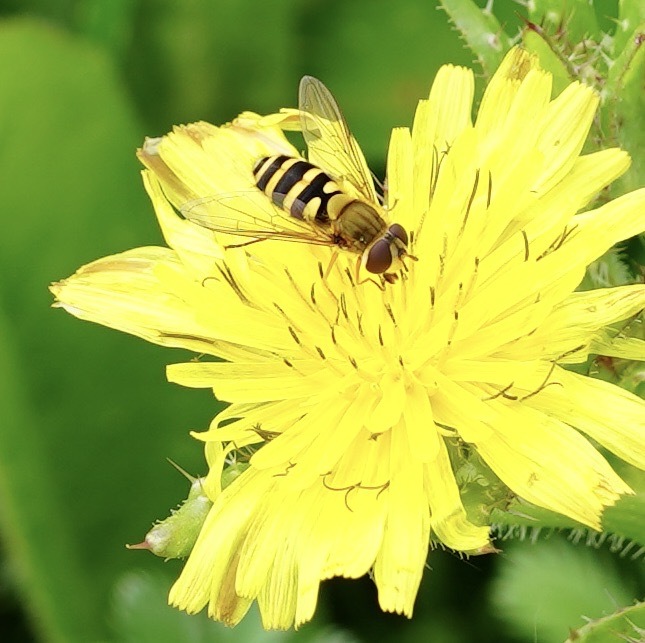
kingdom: Animalia
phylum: Arthropoda
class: Insecta
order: Diptera
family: Syrphidae
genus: Syrphus
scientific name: Syrphus ribesii
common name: Common flower fly
